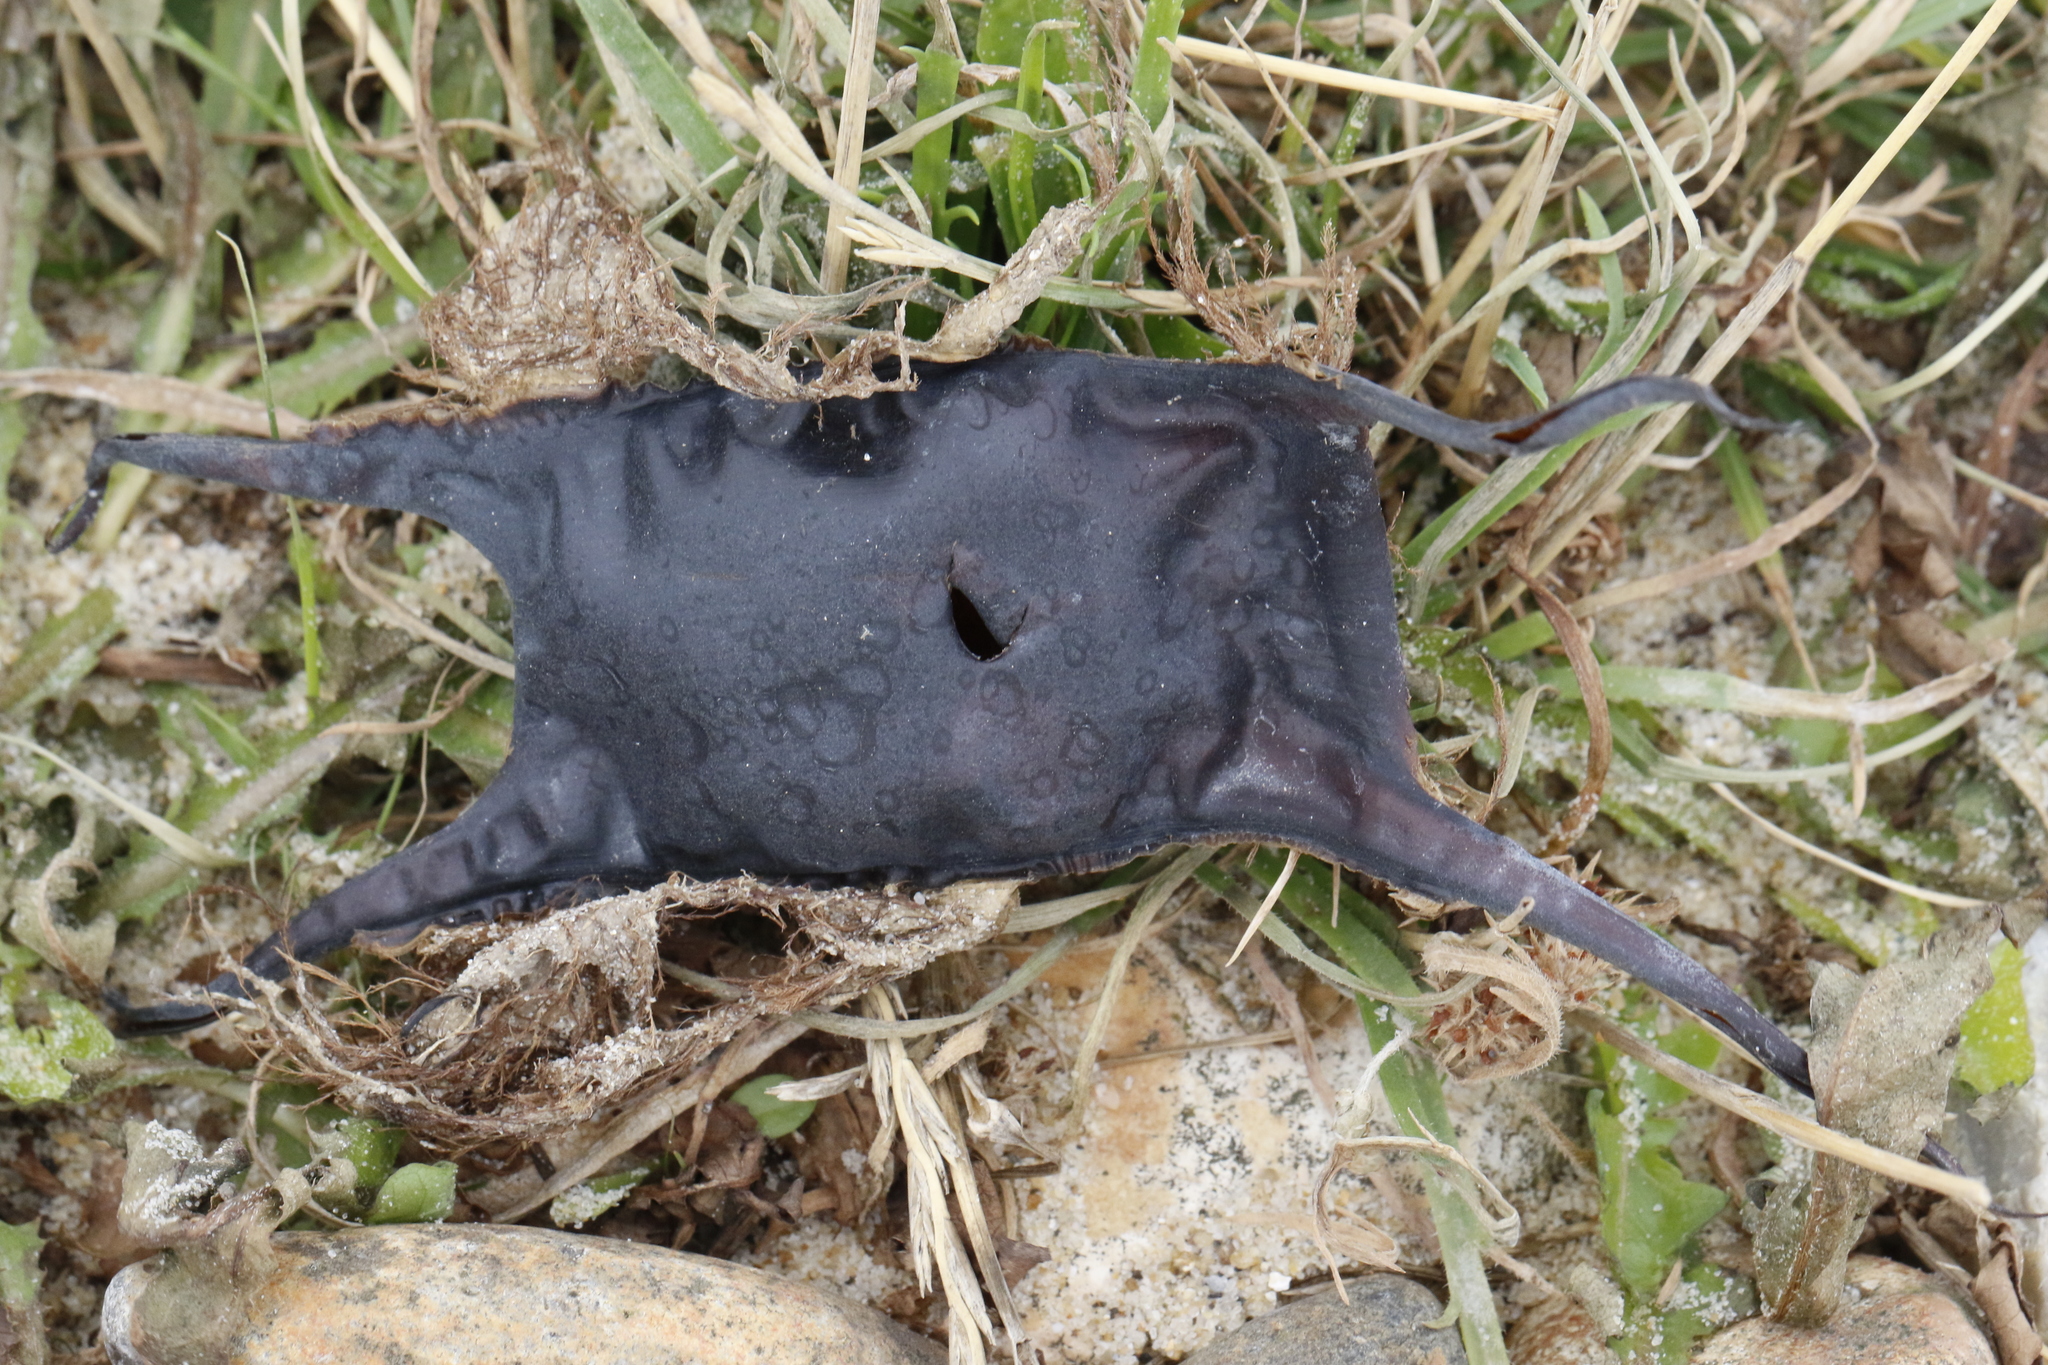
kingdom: Animalia
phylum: Chordata
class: Elasmobranchii
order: Rajiformes
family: Rajidae
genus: Raja
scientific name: Raja clavata
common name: Thornback ray
